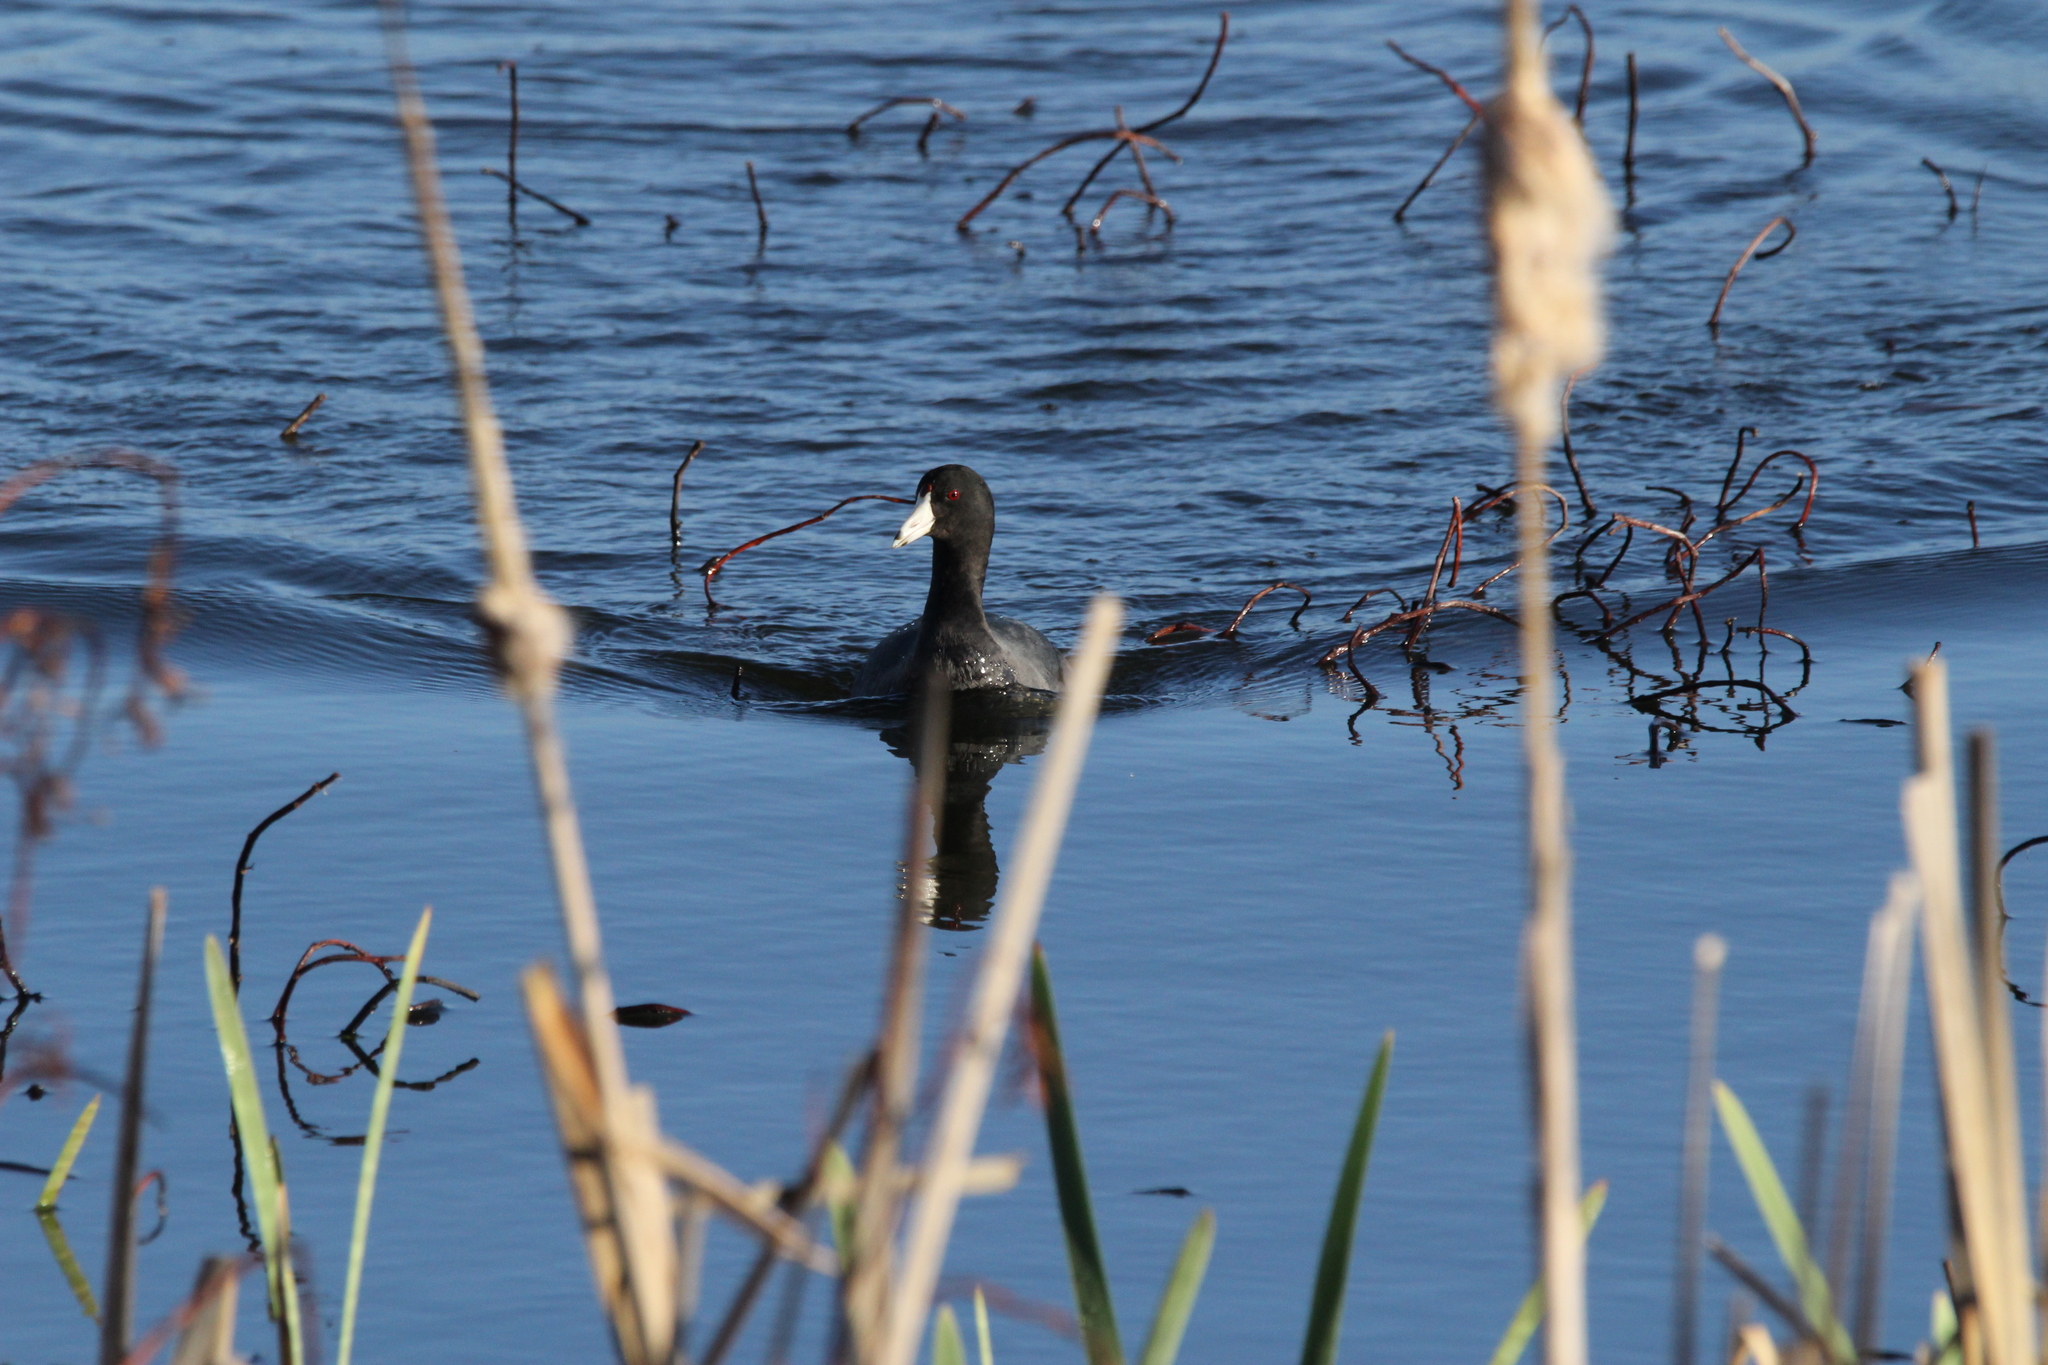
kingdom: Animalia
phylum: Chordata
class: Aves
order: Gruiformes
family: Rallidae
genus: Fulica
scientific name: Fulica americana
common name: American coot
